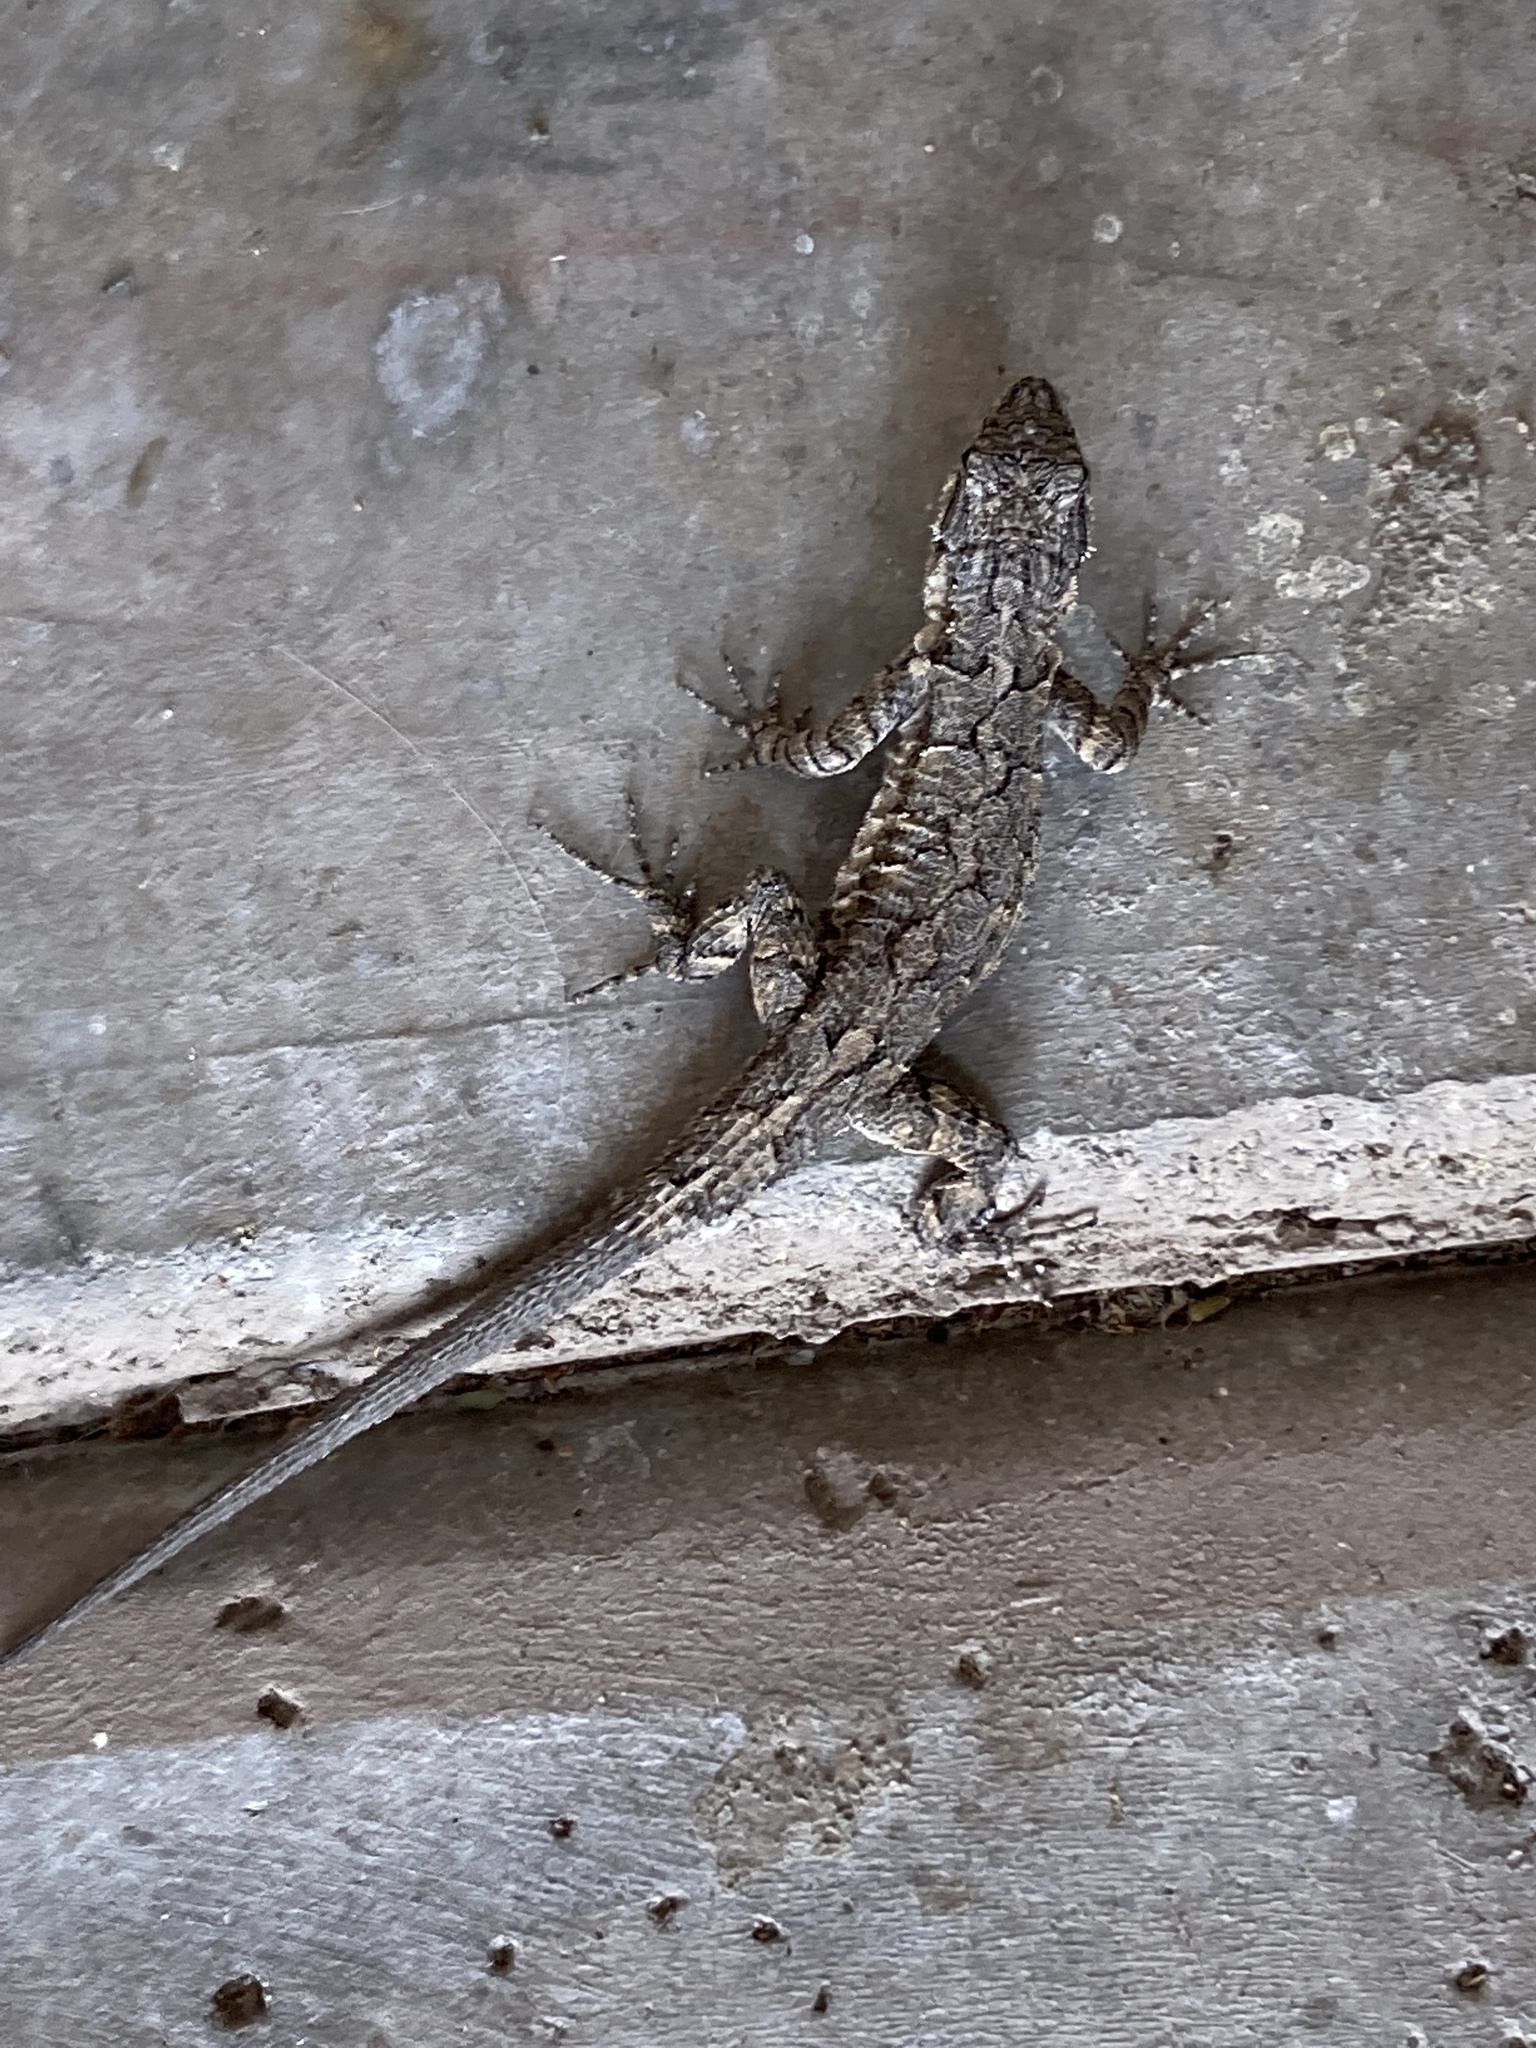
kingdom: Animalia
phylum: Chordata
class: Squamata
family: Phrynosomatidae
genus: Urosaurus
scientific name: Urosaurus ornatus
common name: Ornate tree lizard
